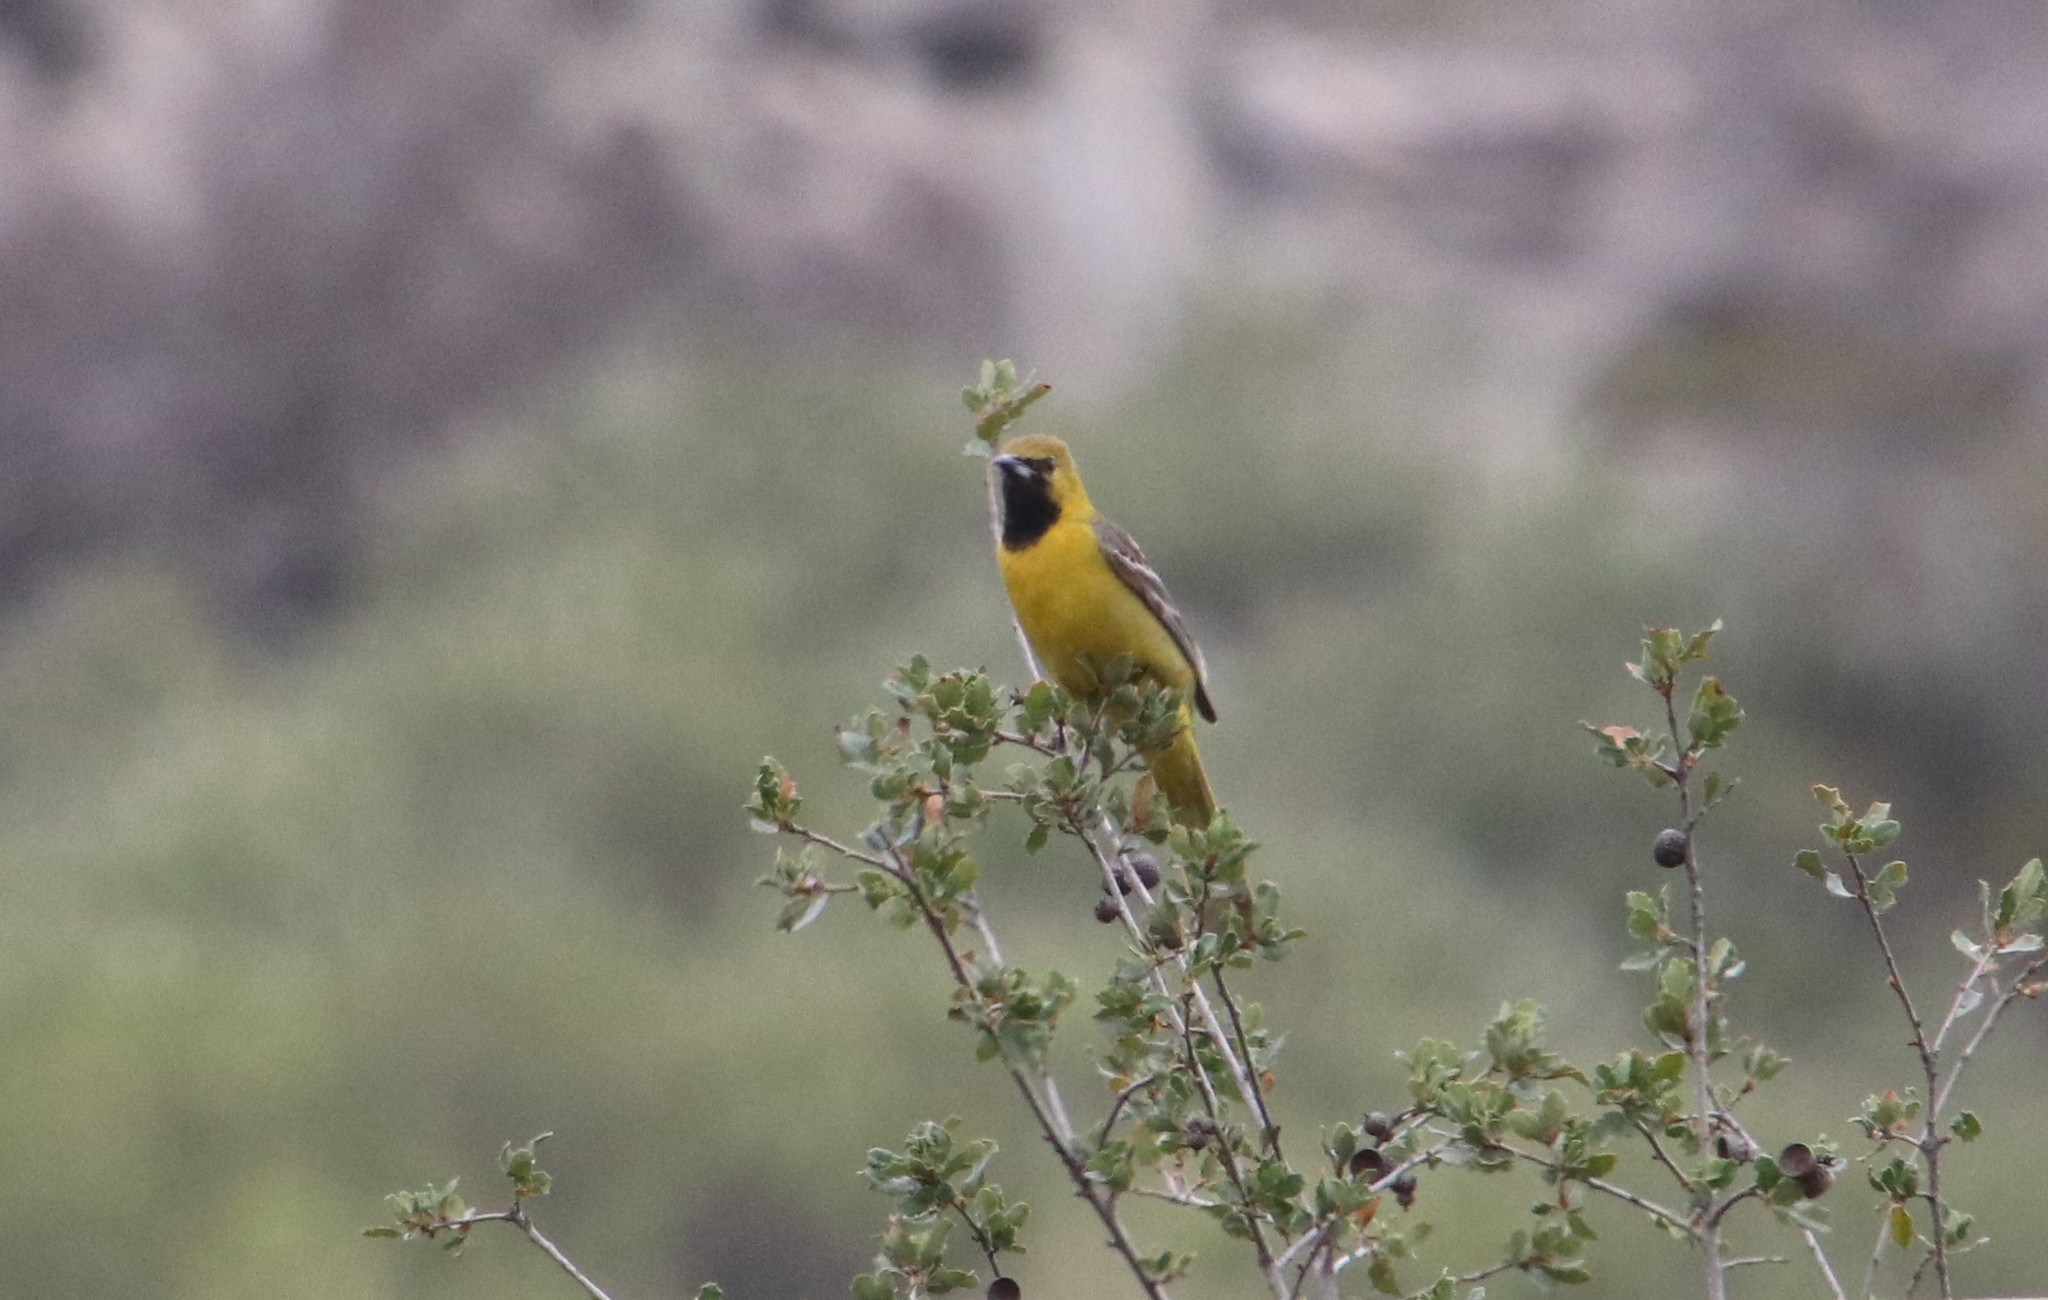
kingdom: Animalia
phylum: Chordata
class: Aves
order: Passeriformes
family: Icteridae
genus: Icterus
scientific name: Icterus cucullatus
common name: Hooded oriole
